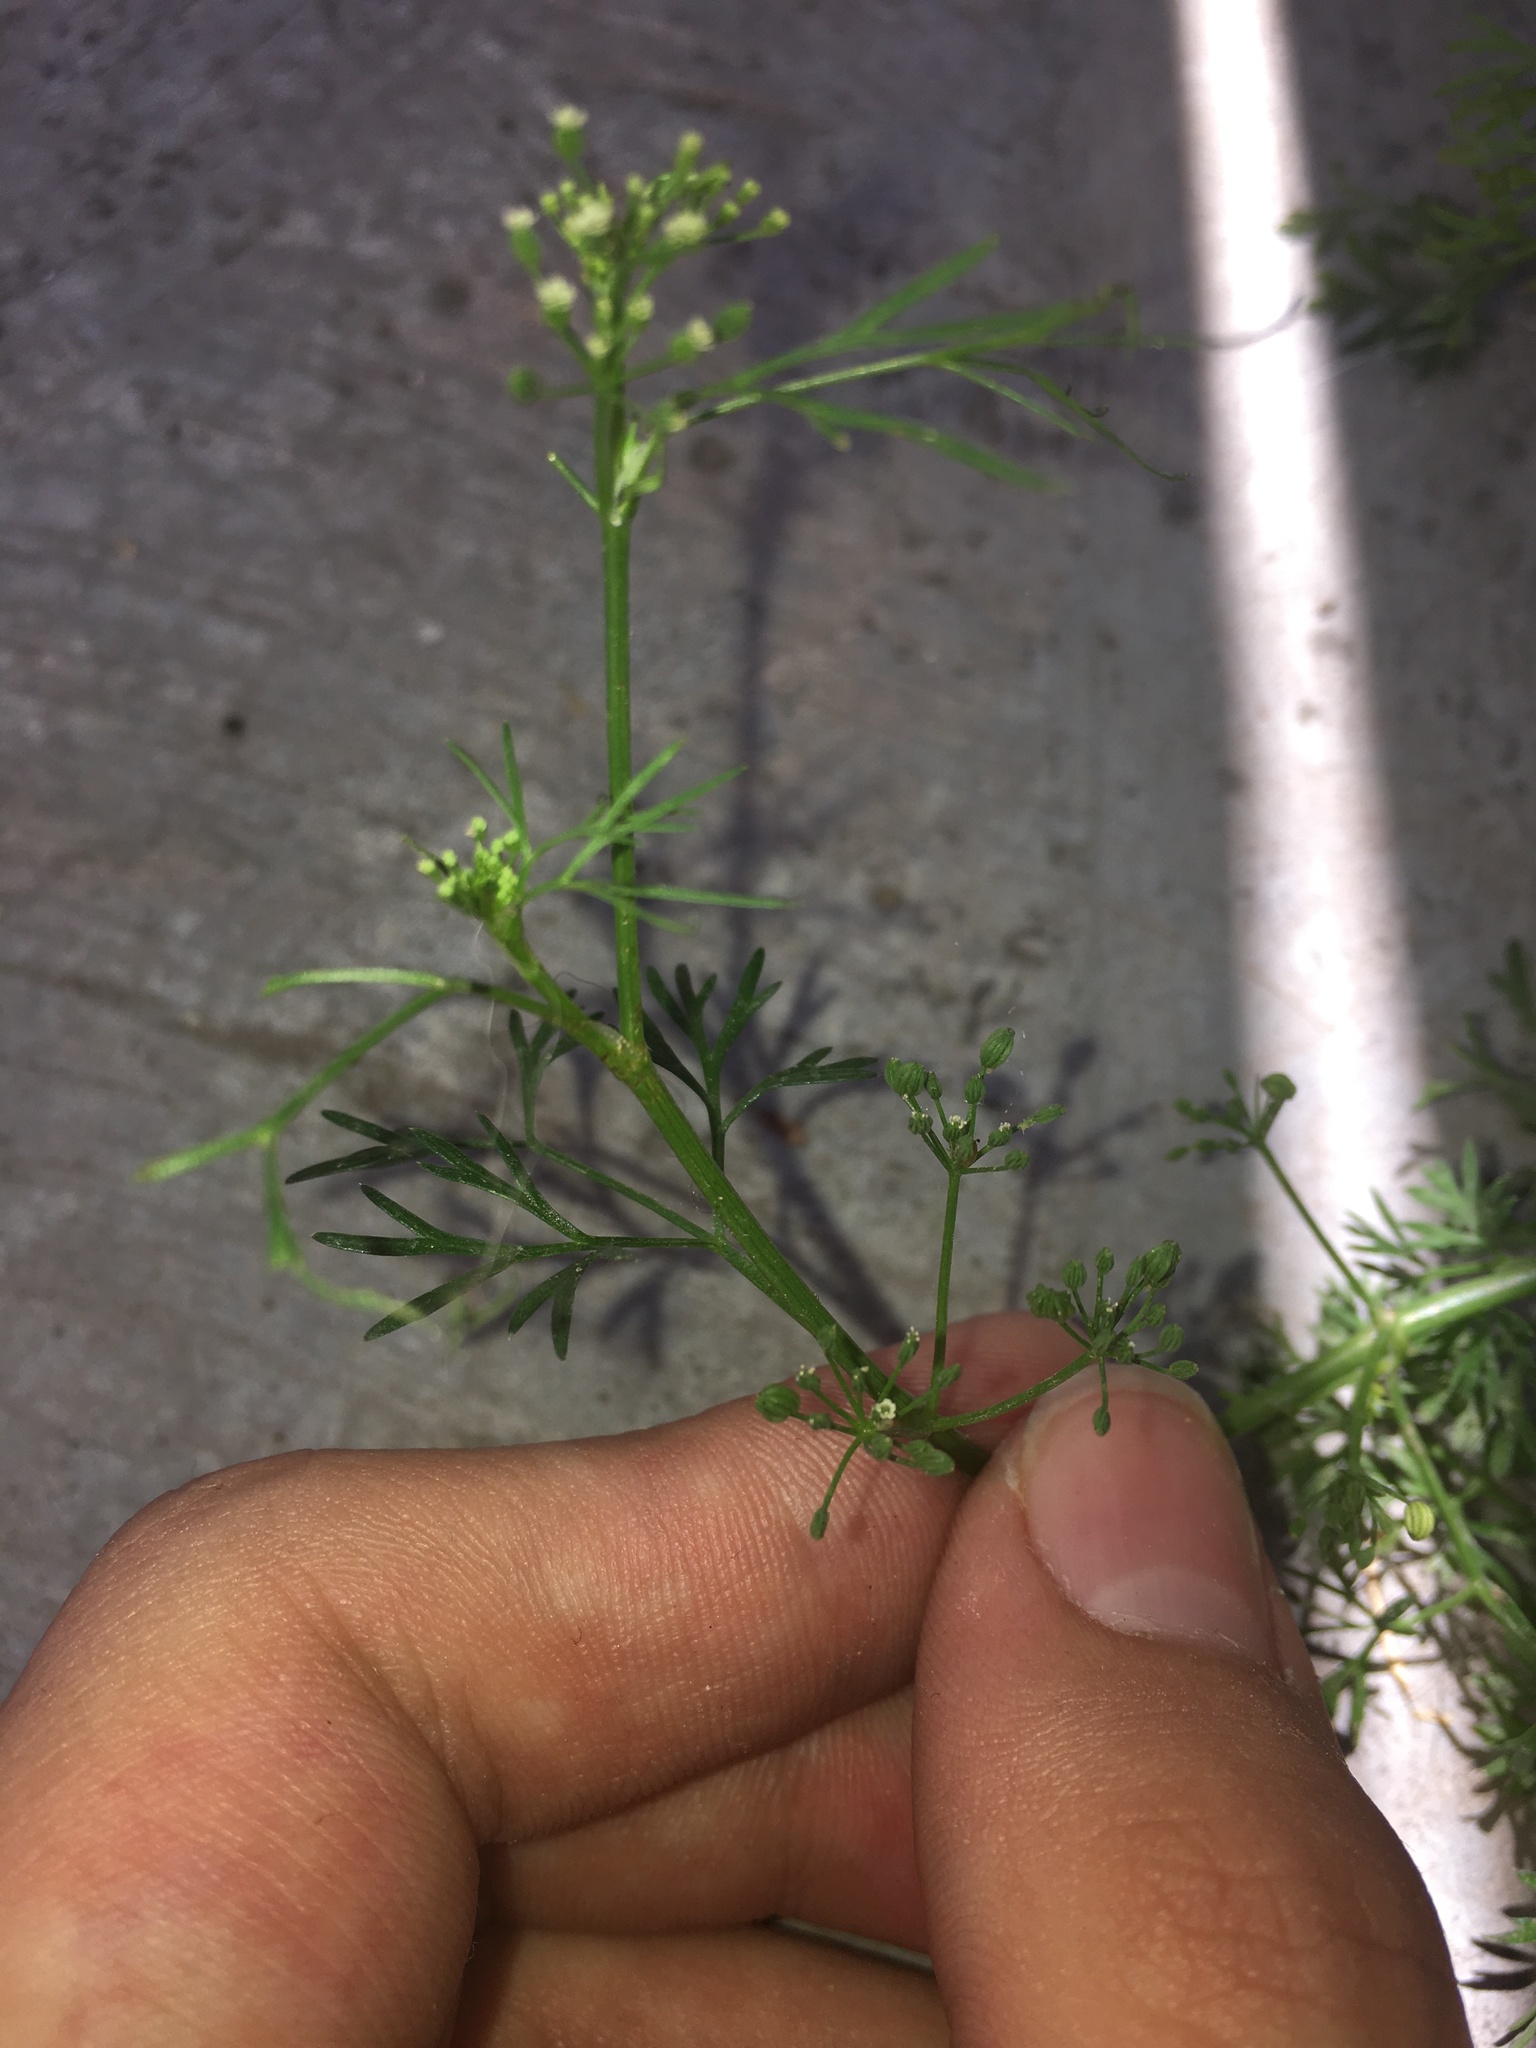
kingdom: Plantae
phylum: Tracheophyta
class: Magnoliopsida
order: Apiales
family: Apiaceae
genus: Cyclospermum
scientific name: Cyclospermum leptophyllum
